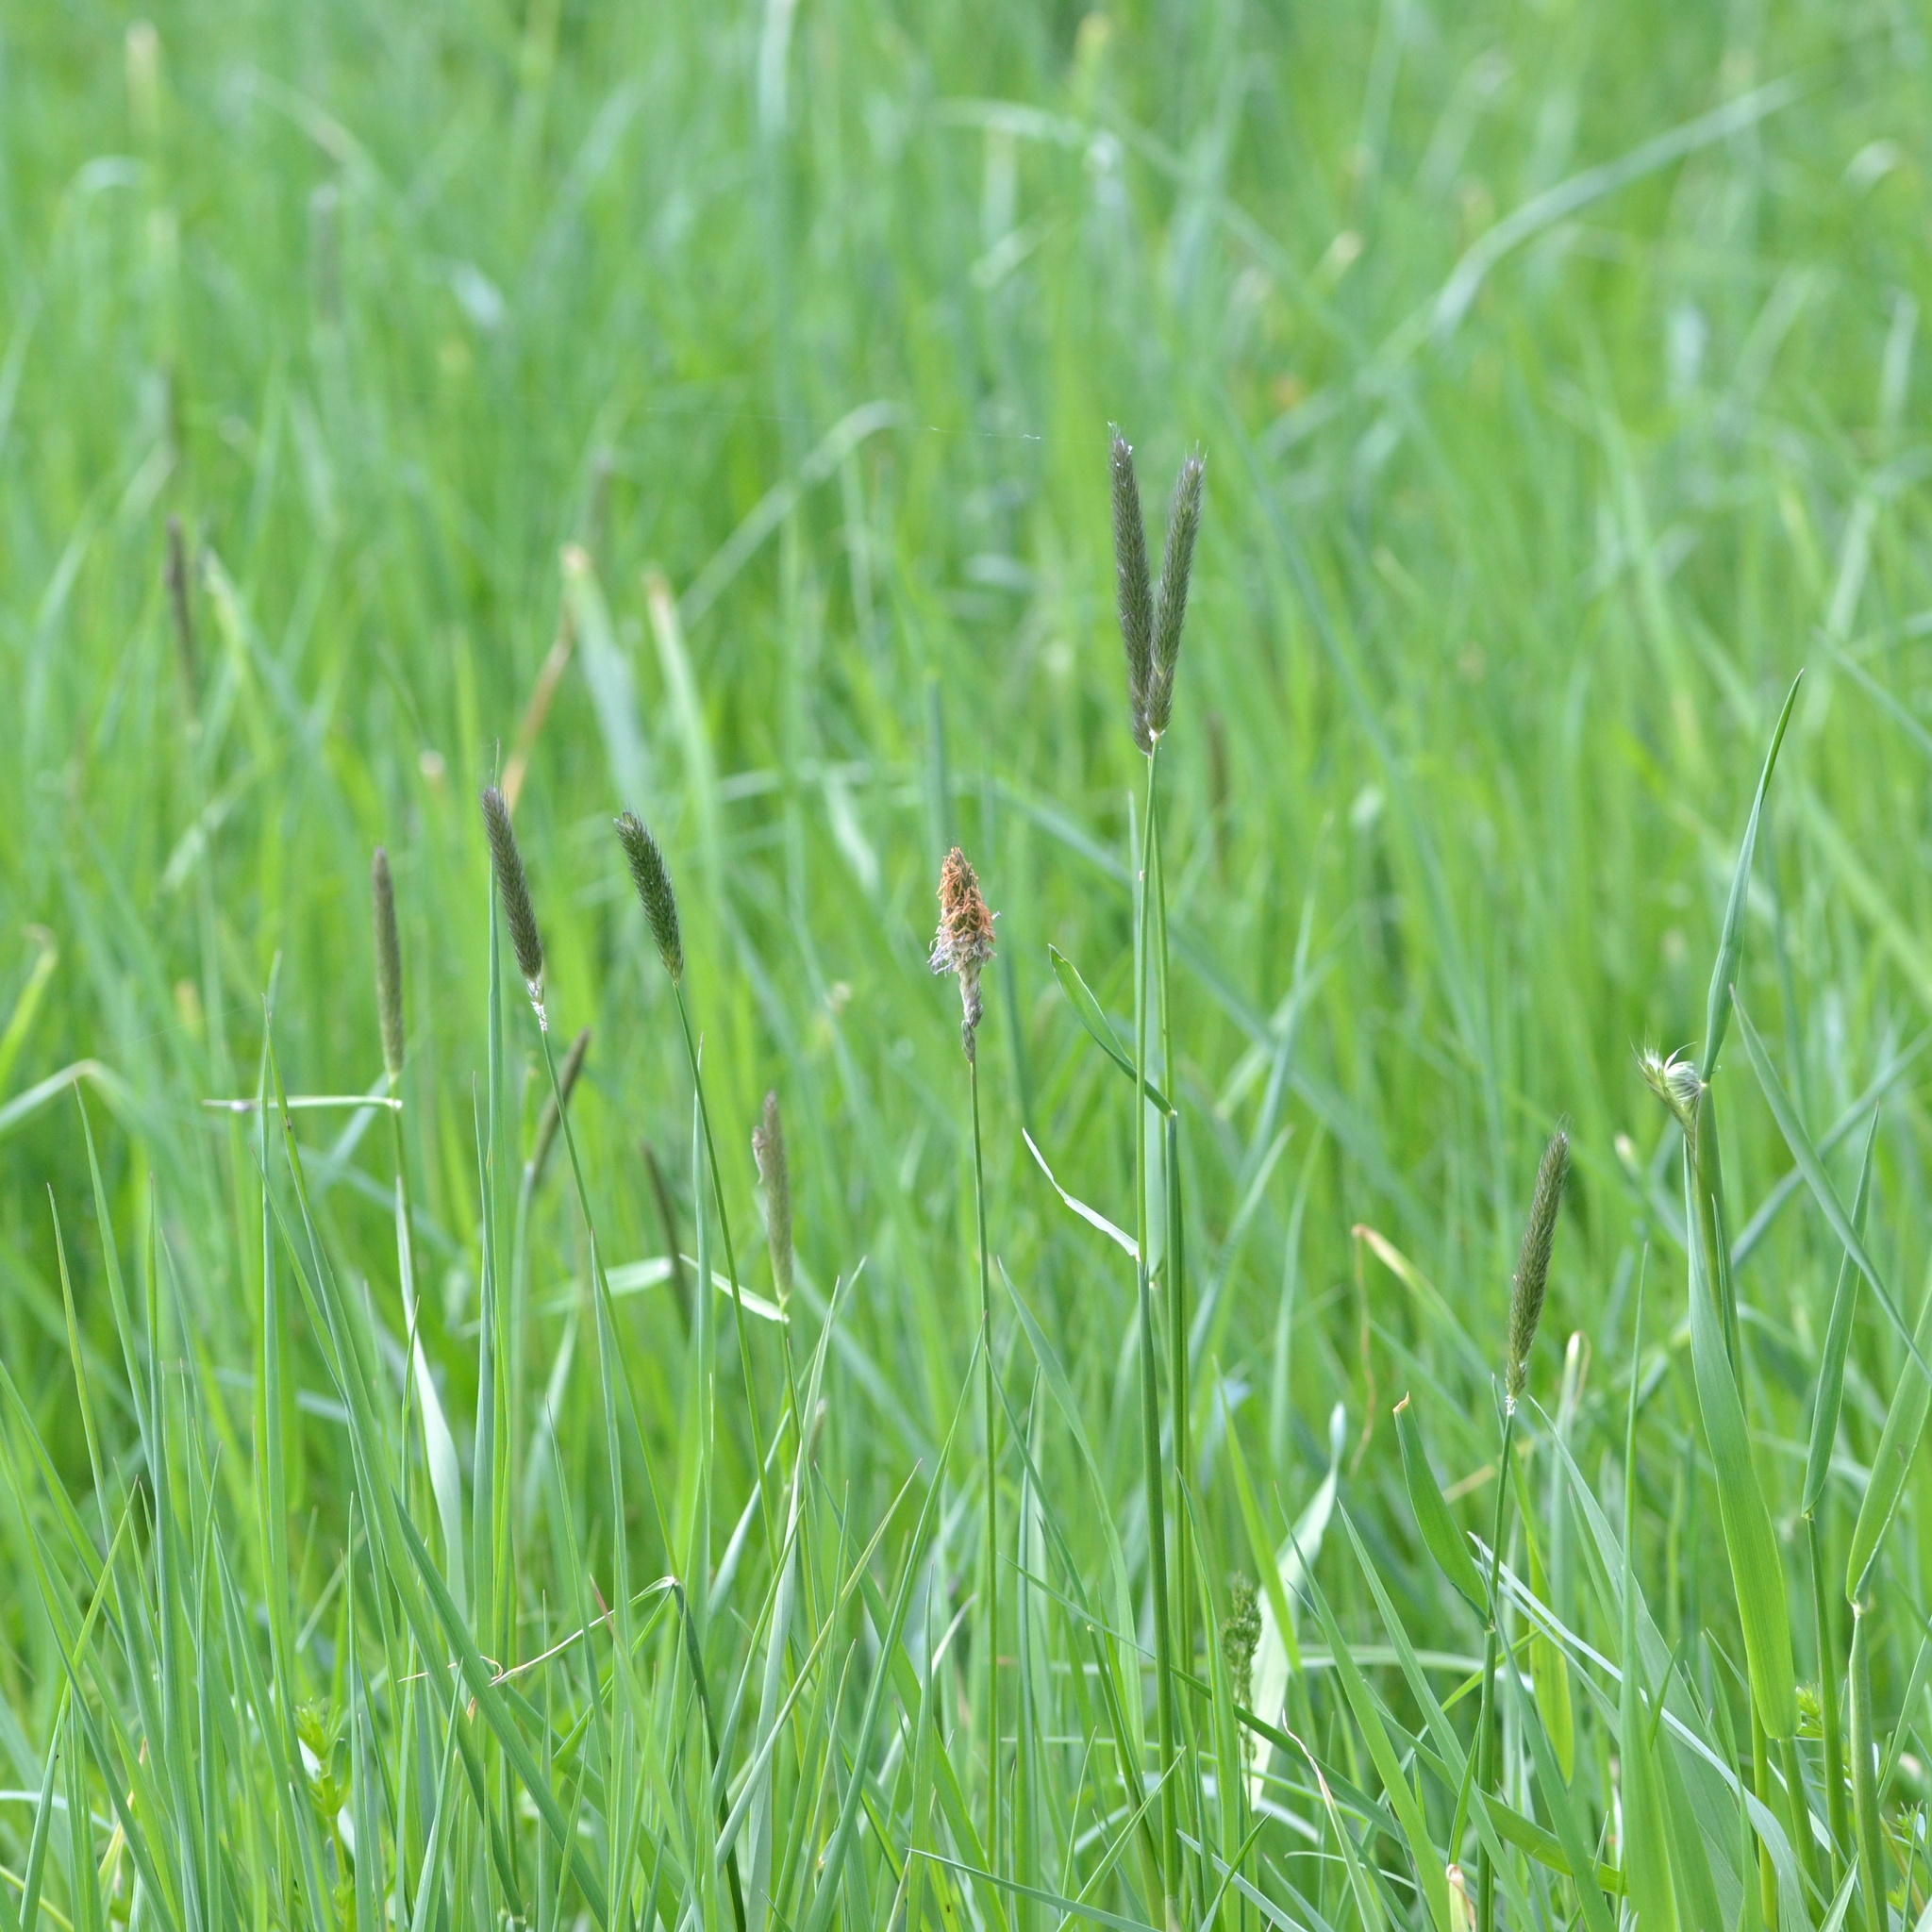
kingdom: Plantae
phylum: Tracheophyta
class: Liliopsida
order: Poales
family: Poaceae
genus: Alopecurus
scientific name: Alopecurus pratensis
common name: Meadow foxtail
